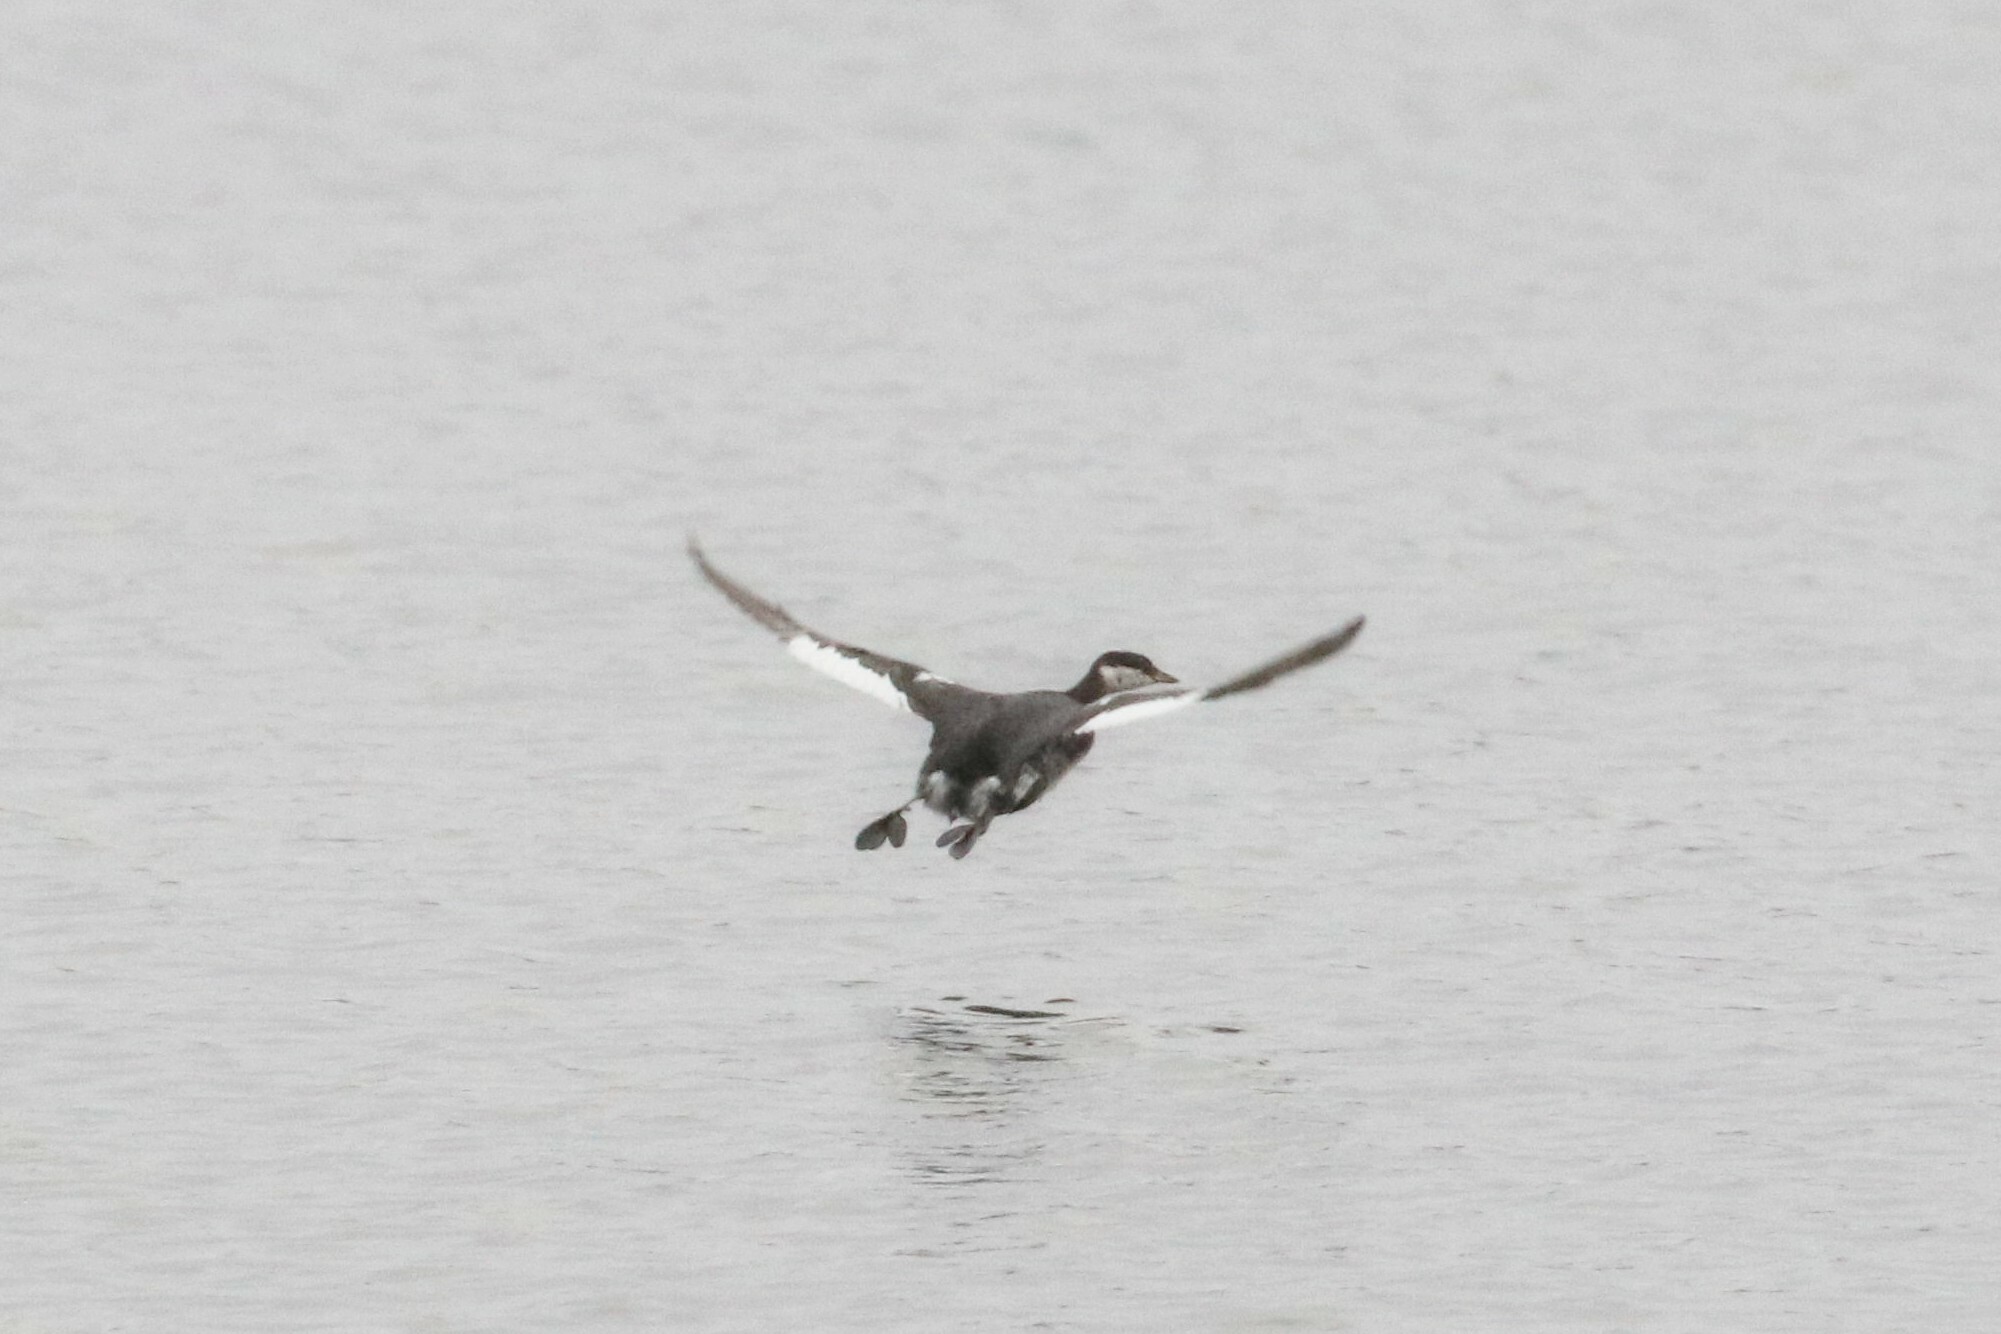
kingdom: Animalia
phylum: Chordata
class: Aves
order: Podicipediformes
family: Podicipedidae
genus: Podiceps
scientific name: Podiceps auritus
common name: Horned grebe
